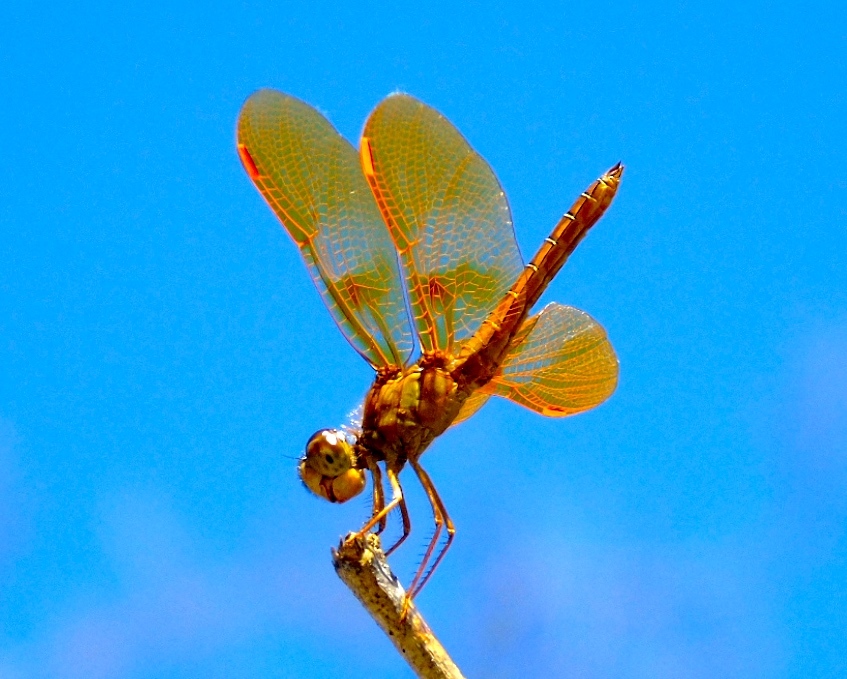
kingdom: Animalia
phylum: Arthropoda
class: Insecta
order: Odonata
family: Libellulidae
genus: Perithemis
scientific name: Perithemis
